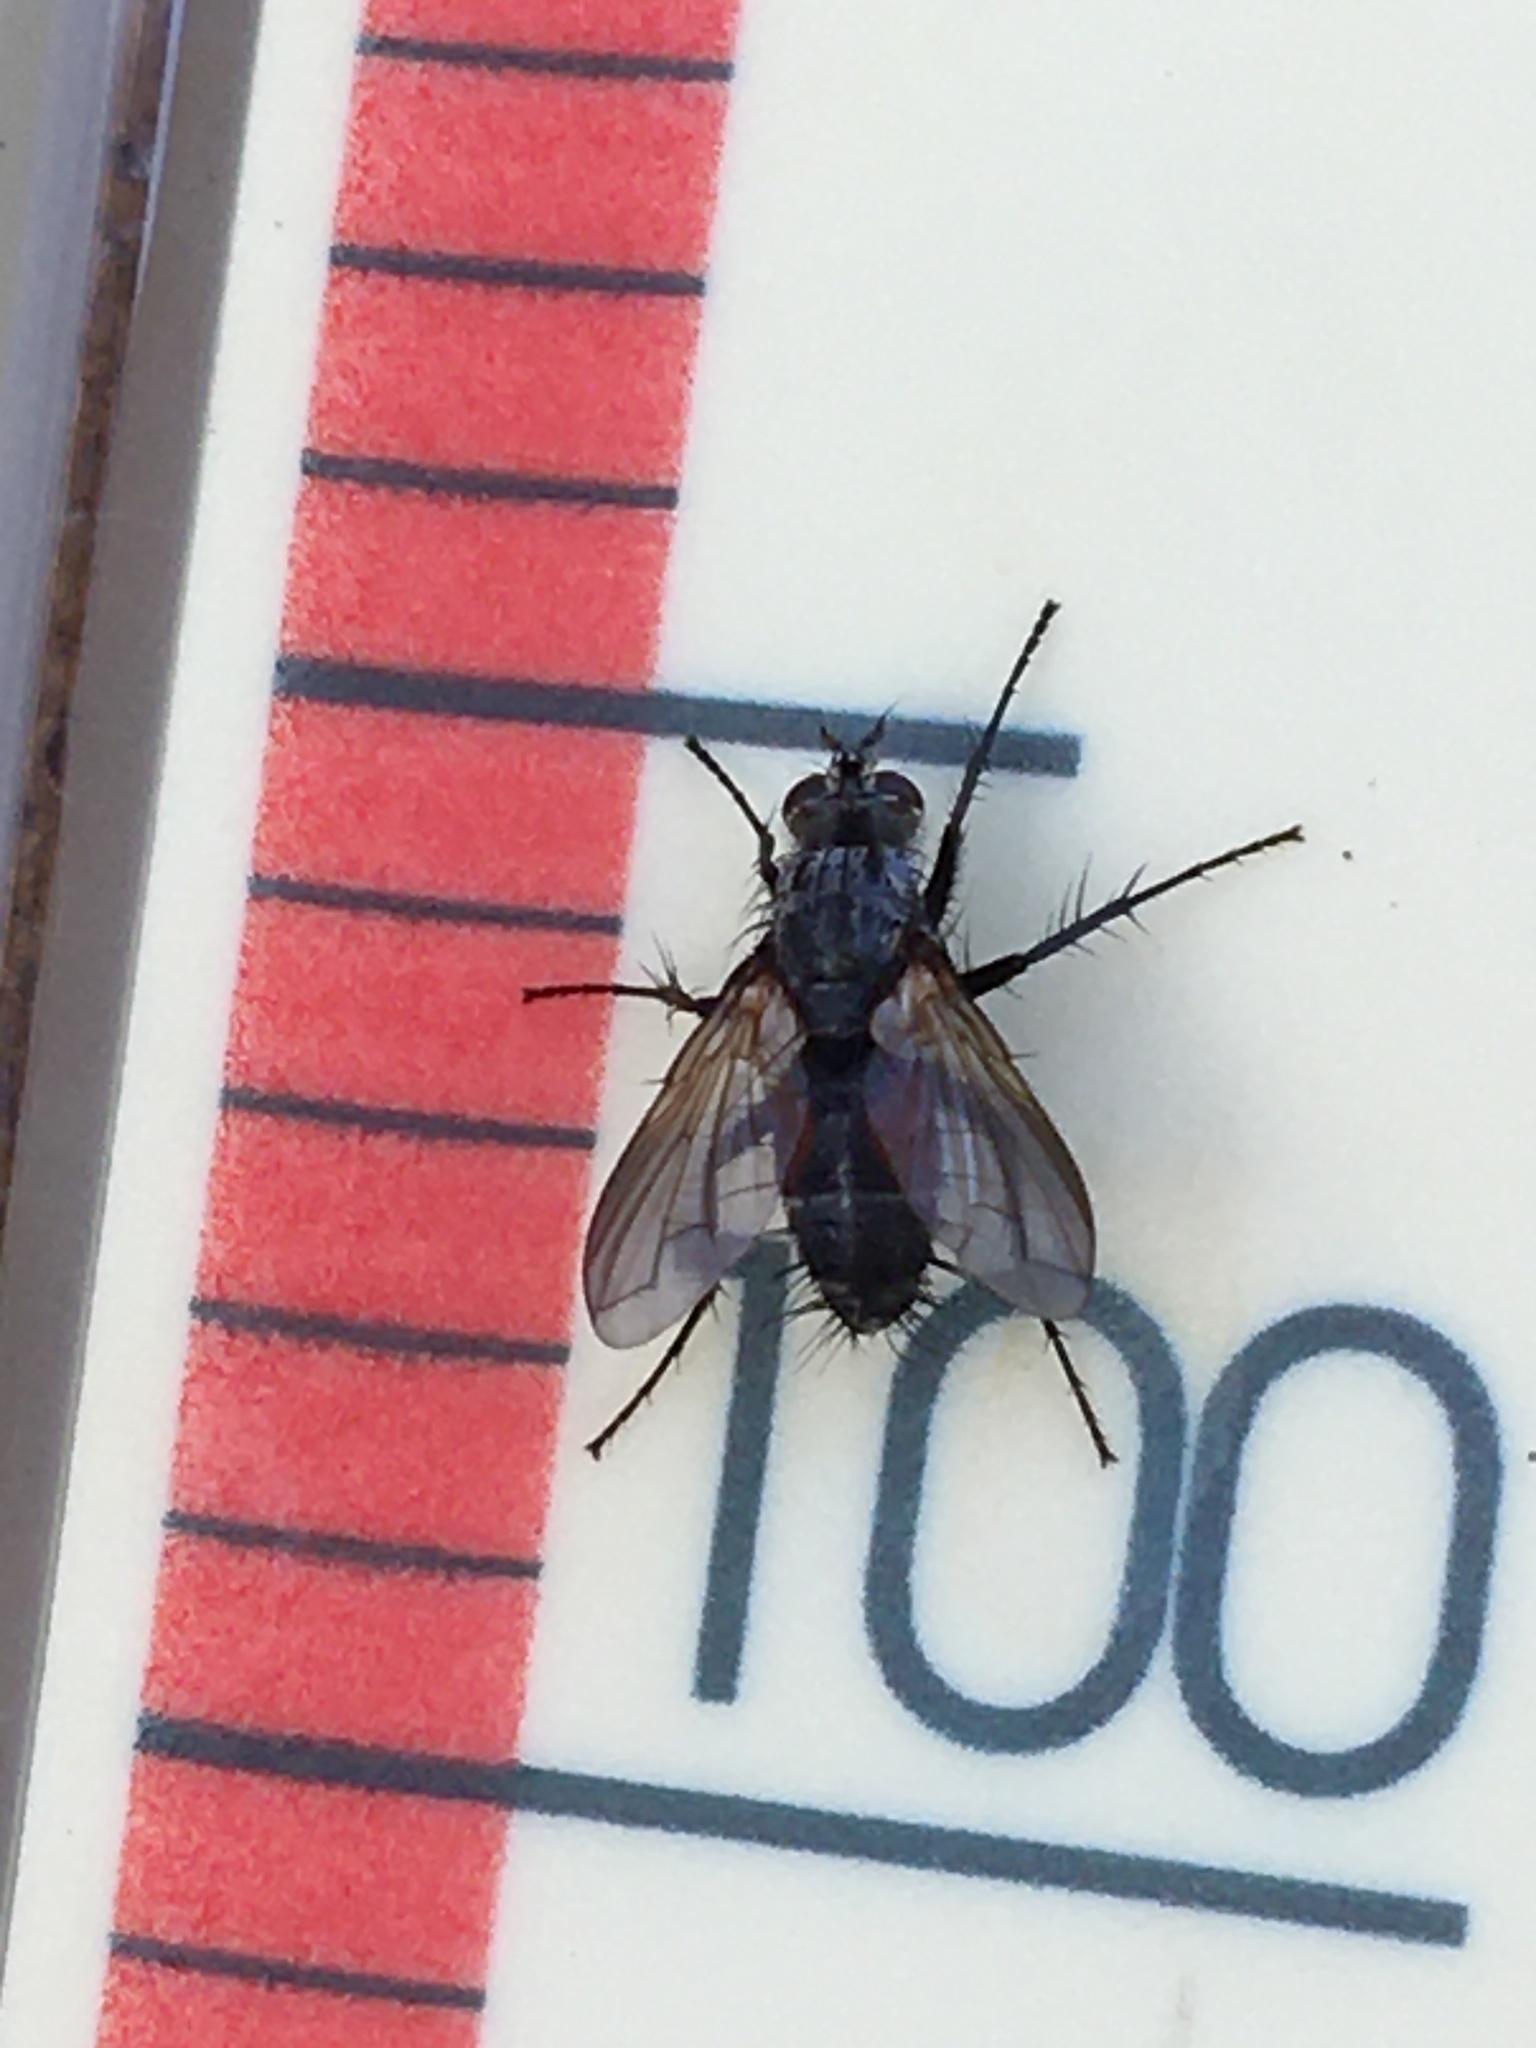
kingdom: Animalia
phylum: Arthropoda
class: Insecta
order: Diptera
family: Tachinidae
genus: Eriothrix
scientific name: Eriothrix rufomaculatus
